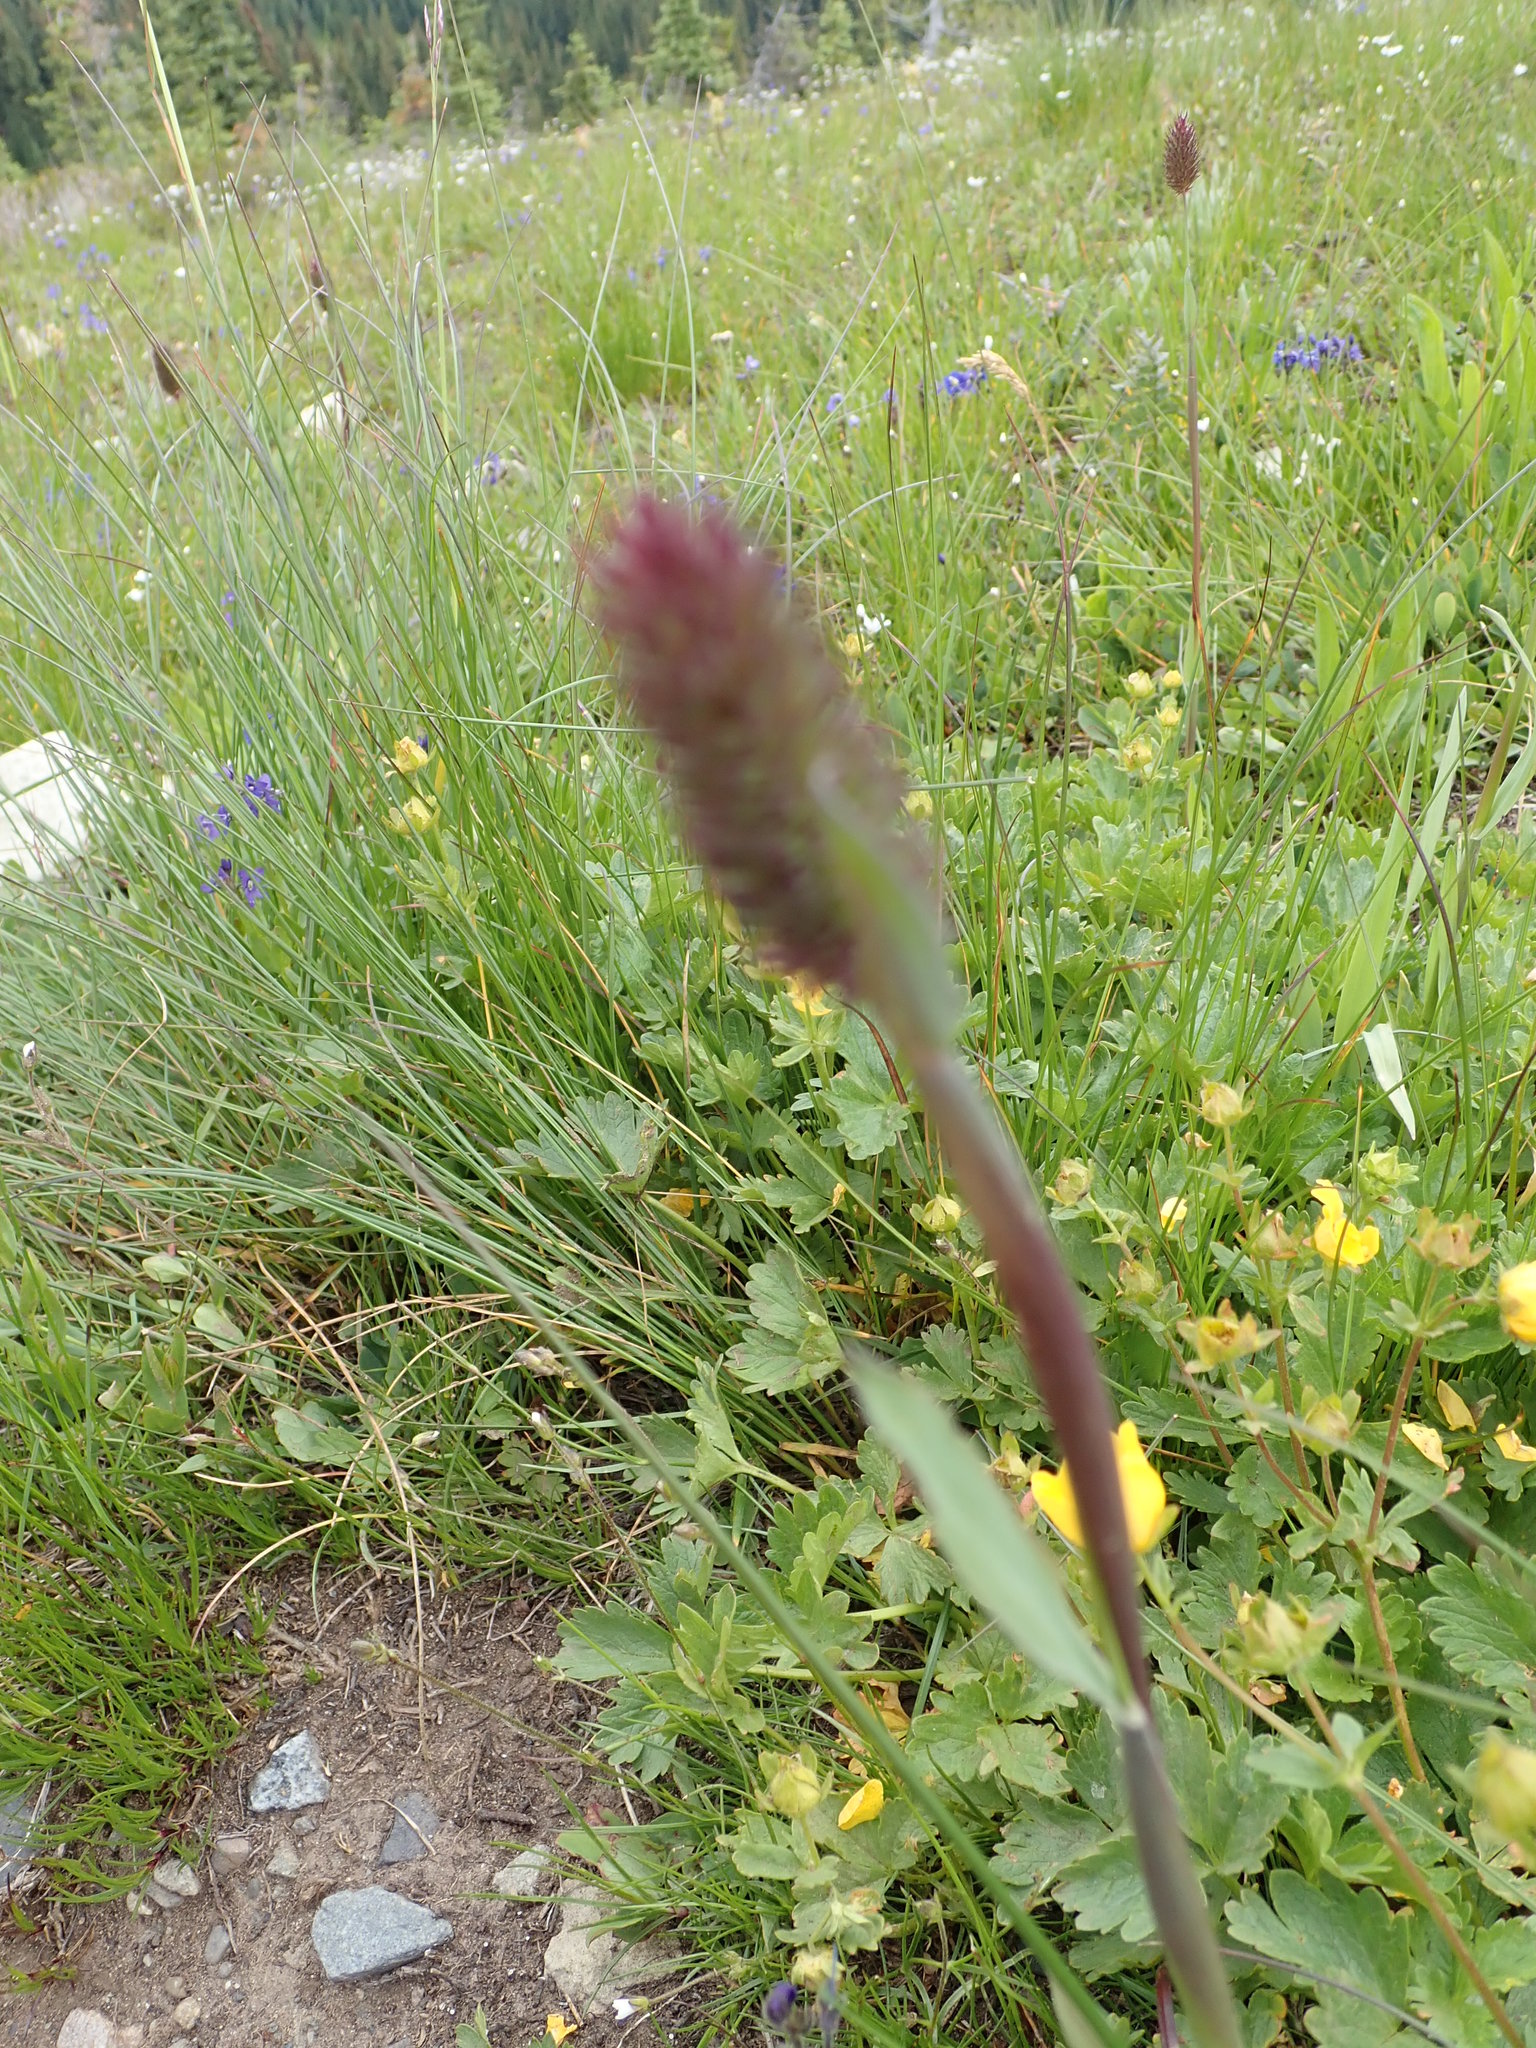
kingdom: Plantae
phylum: Tracheophyta
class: Liliopsida
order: Poales
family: Poaceae
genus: Phleum
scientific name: Phleum alpinum
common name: Alpine cat's-tail
